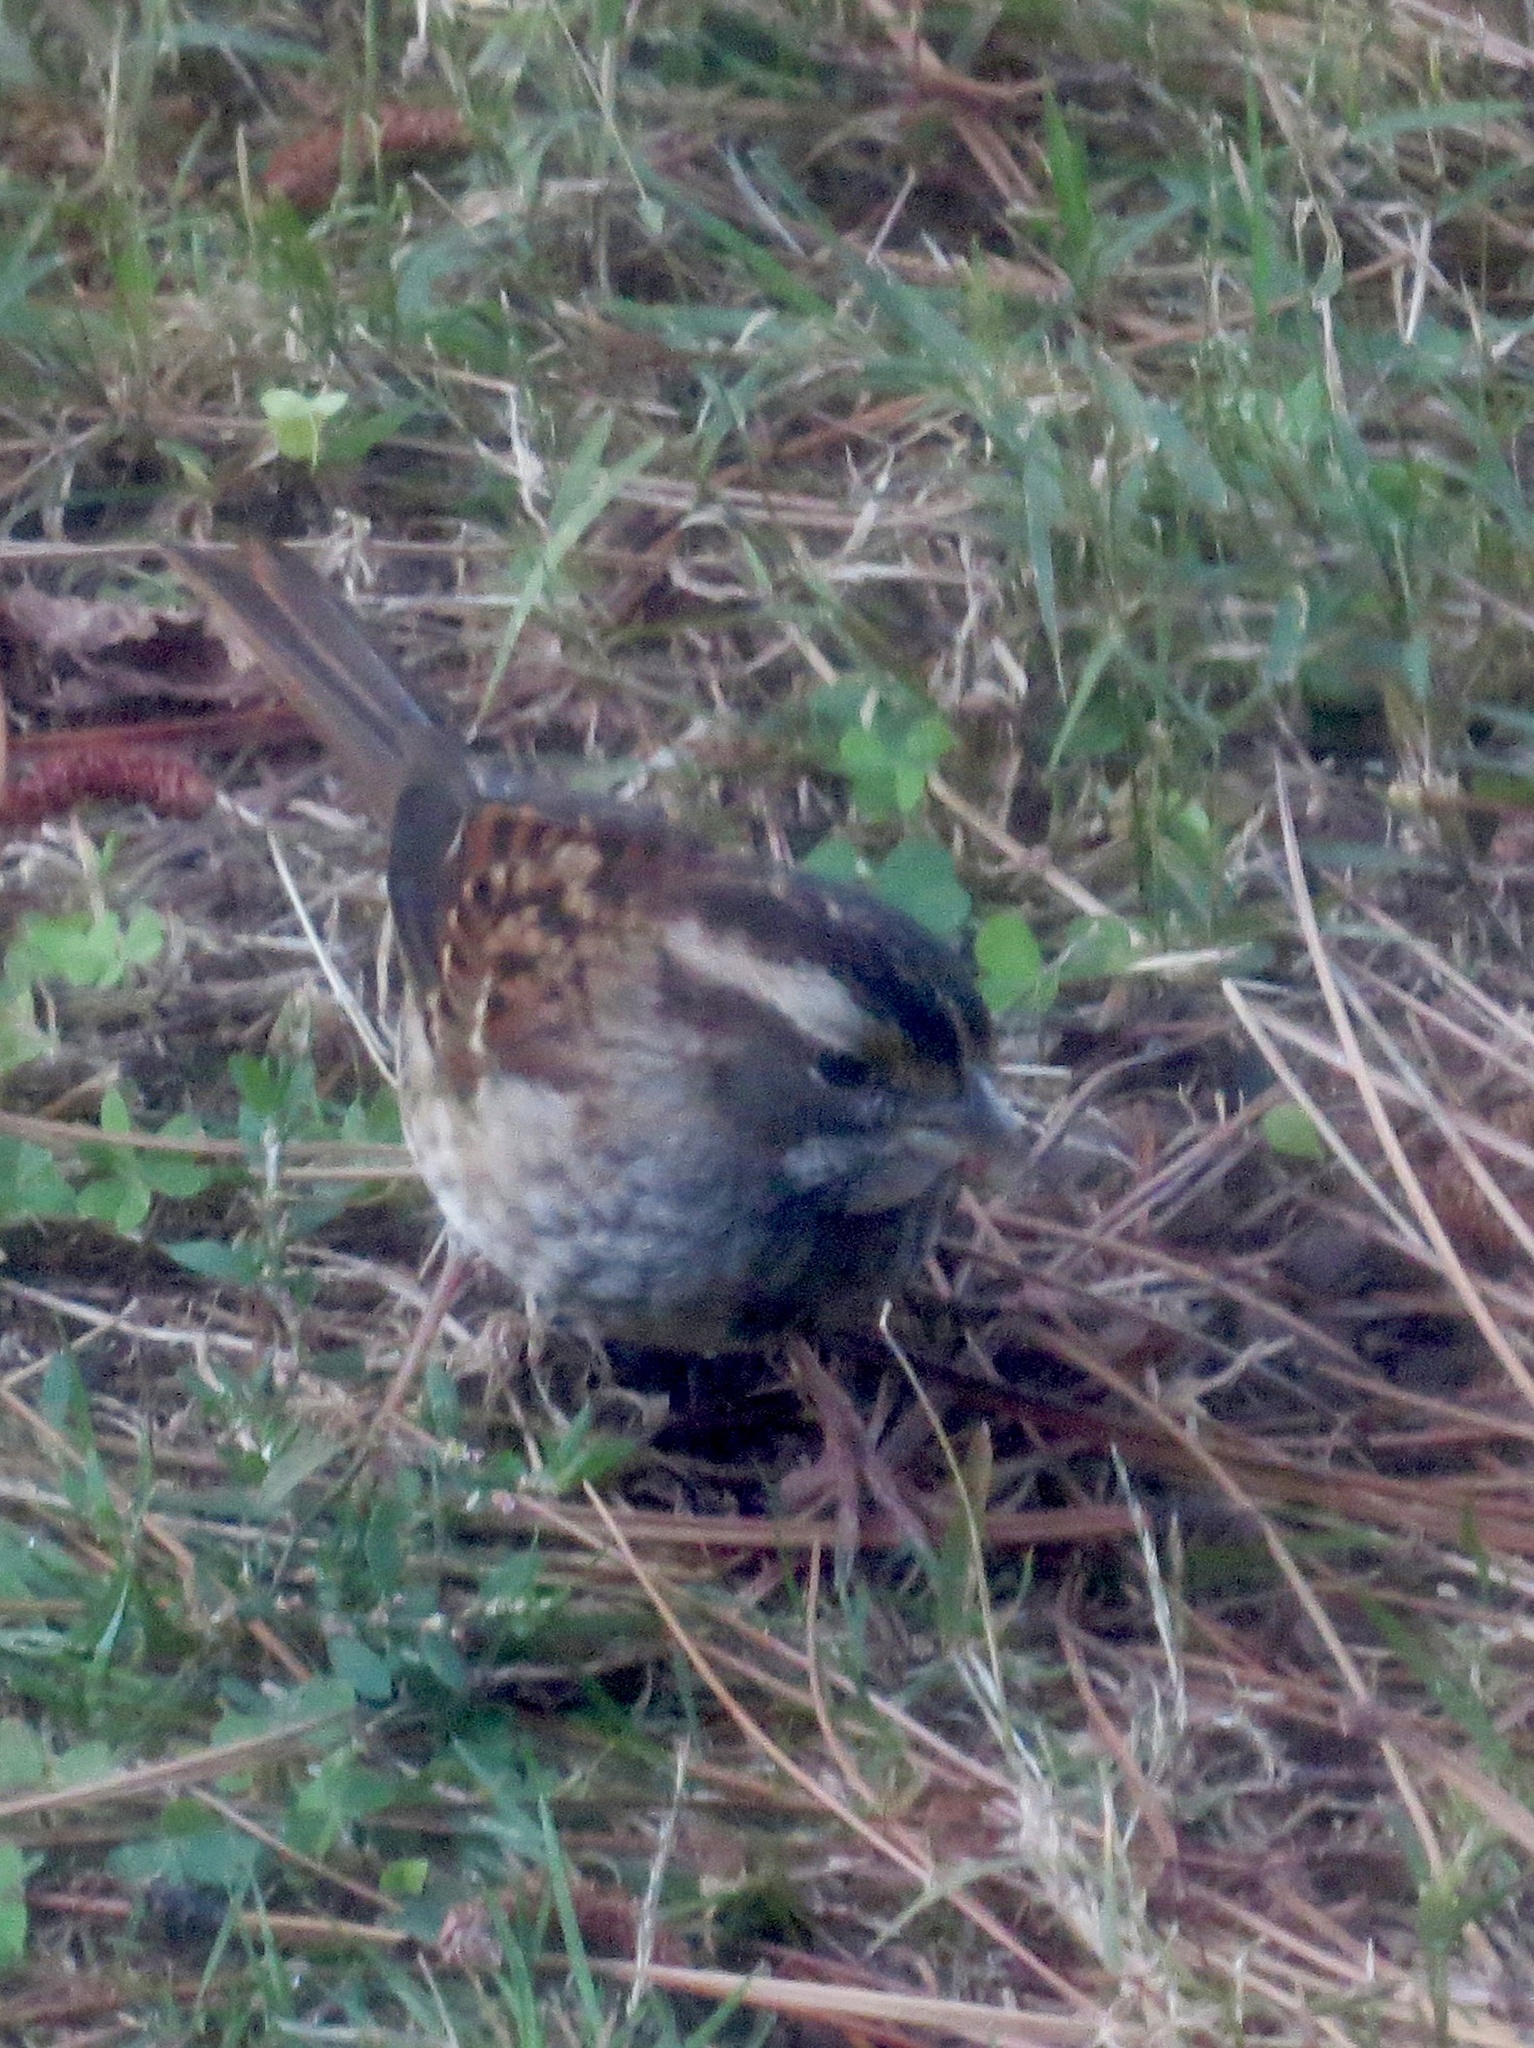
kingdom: Animalia
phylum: Chordata
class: Aves
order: Passeriformes
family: Passerellidae
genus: Zonotrichia
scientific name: Zonotrichia albicollis
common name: White-throated sparrow
